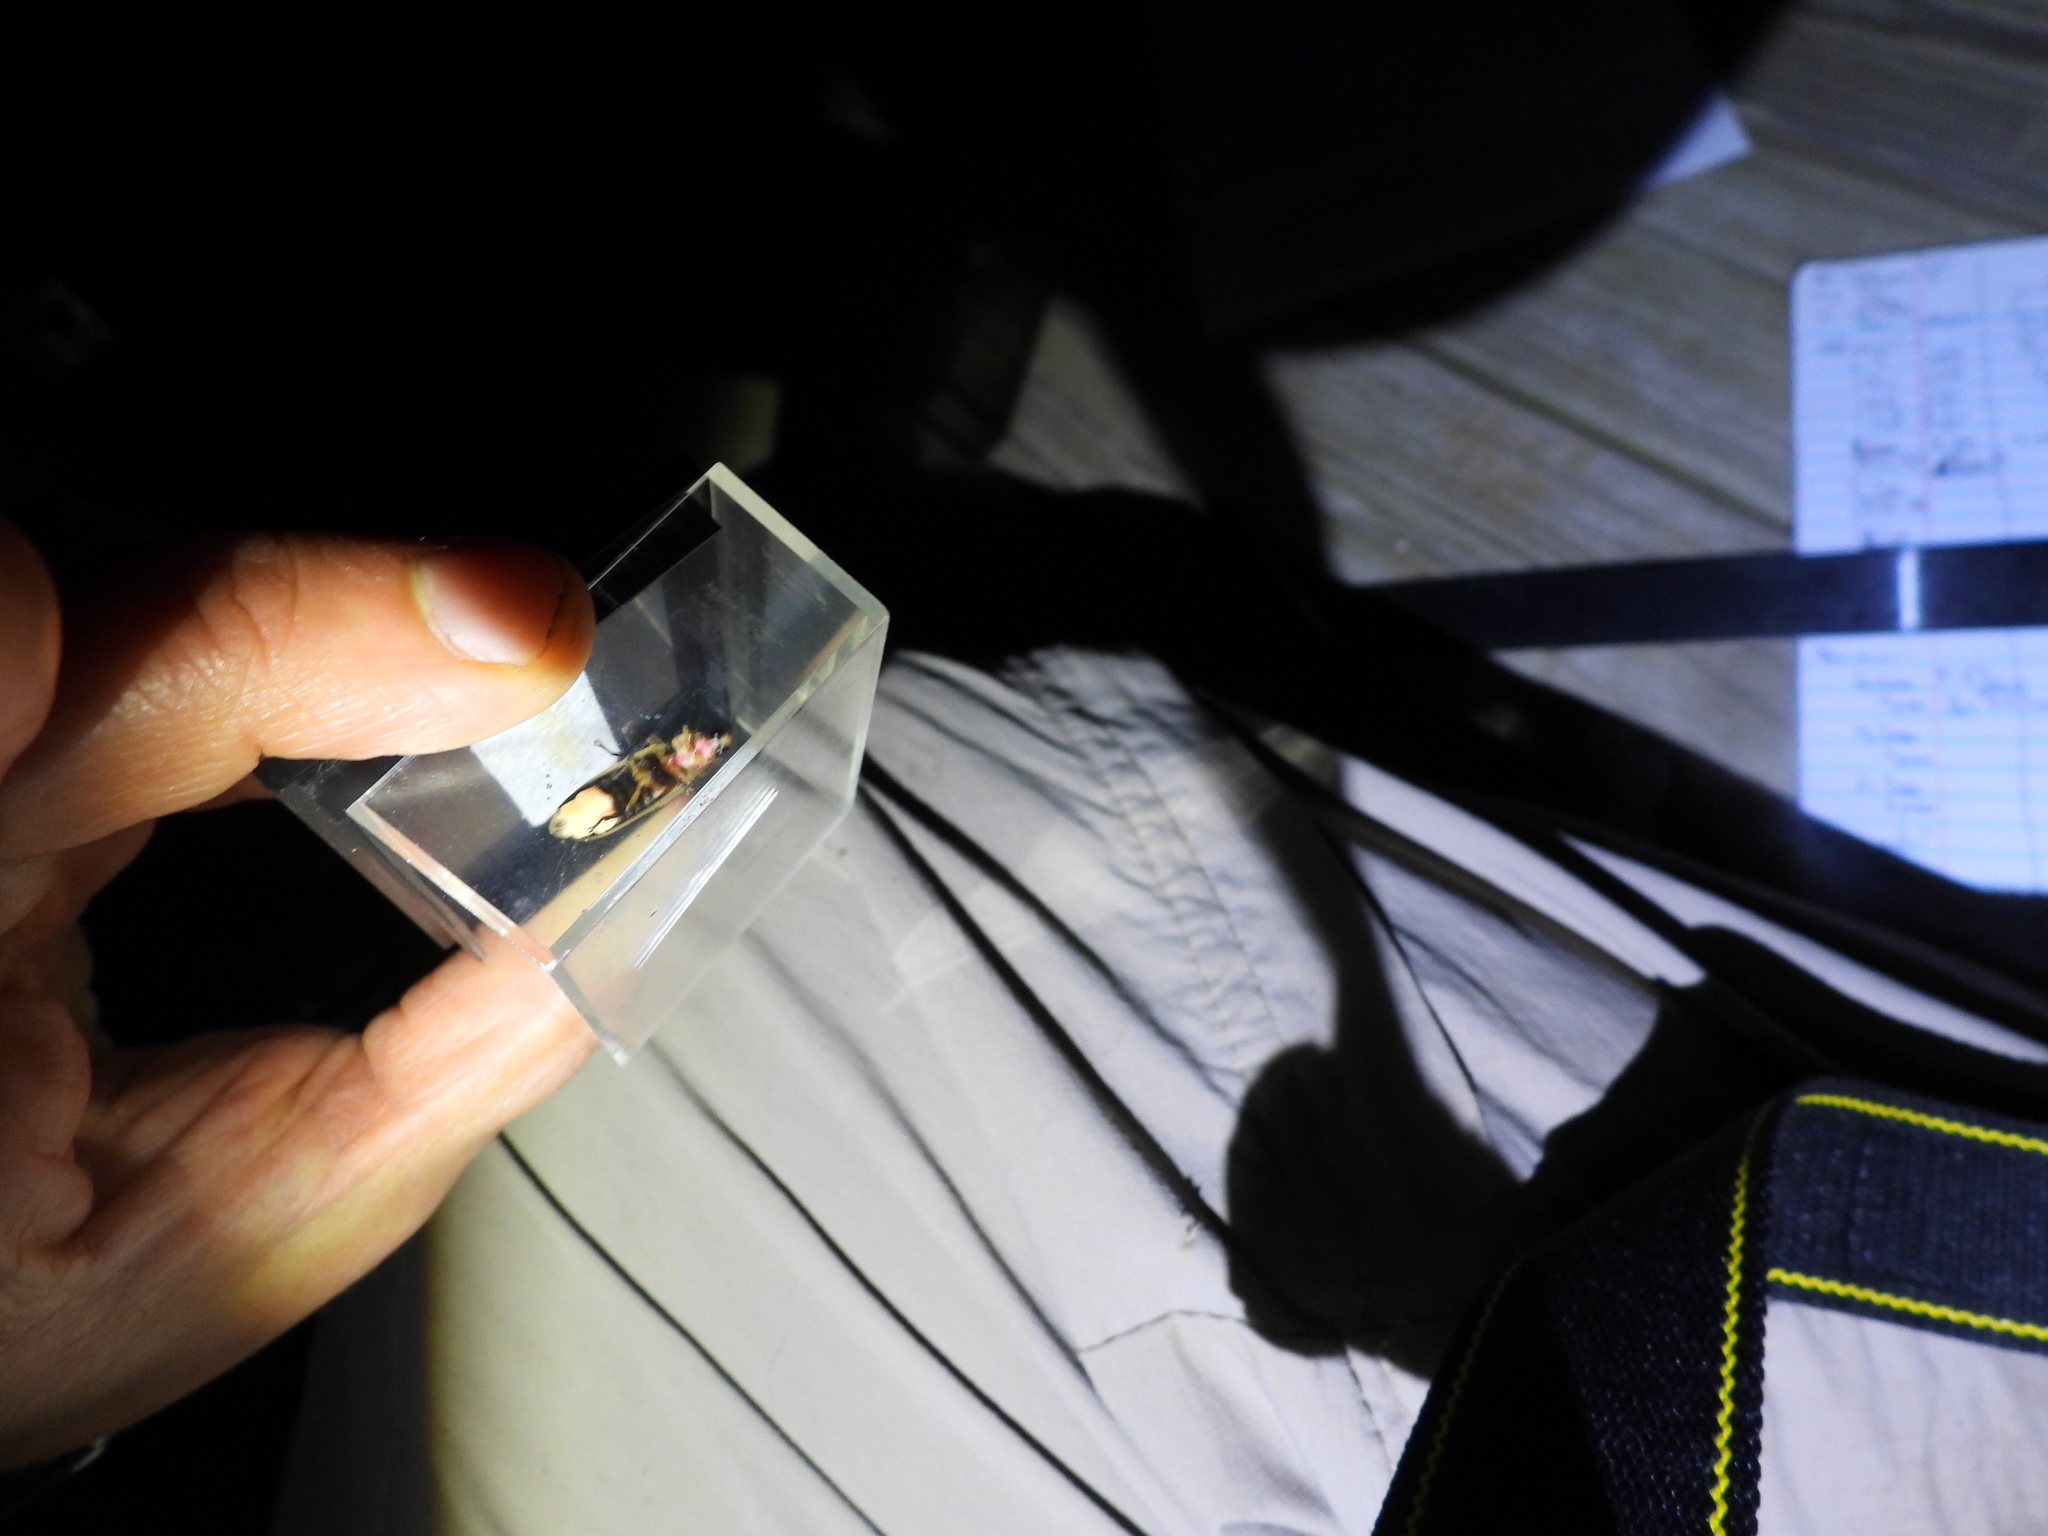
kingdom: Animalia
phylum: Arthropoda
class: Insecta
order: Coleoptera
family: Lampyridae
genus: Photinus
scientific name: Photinus pyralis
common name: Big dipper firefly
